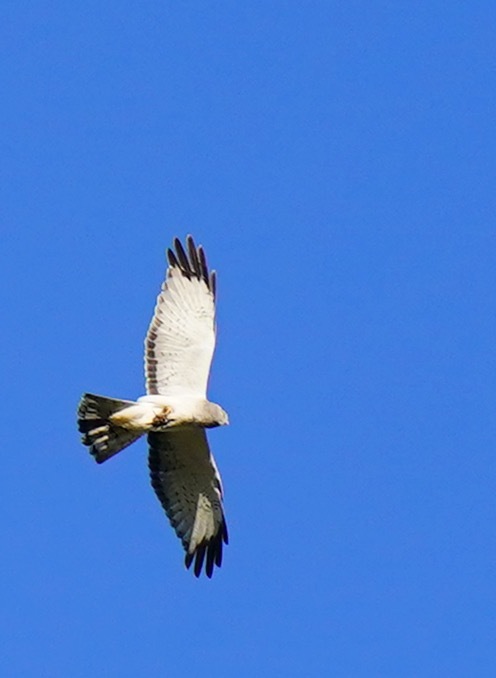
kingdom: Animalia
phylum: Chordata
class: Aves
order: Accipitriformes
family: Accipitridae
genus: Circus
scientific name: Circus cyaneus
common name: Hen harrier
